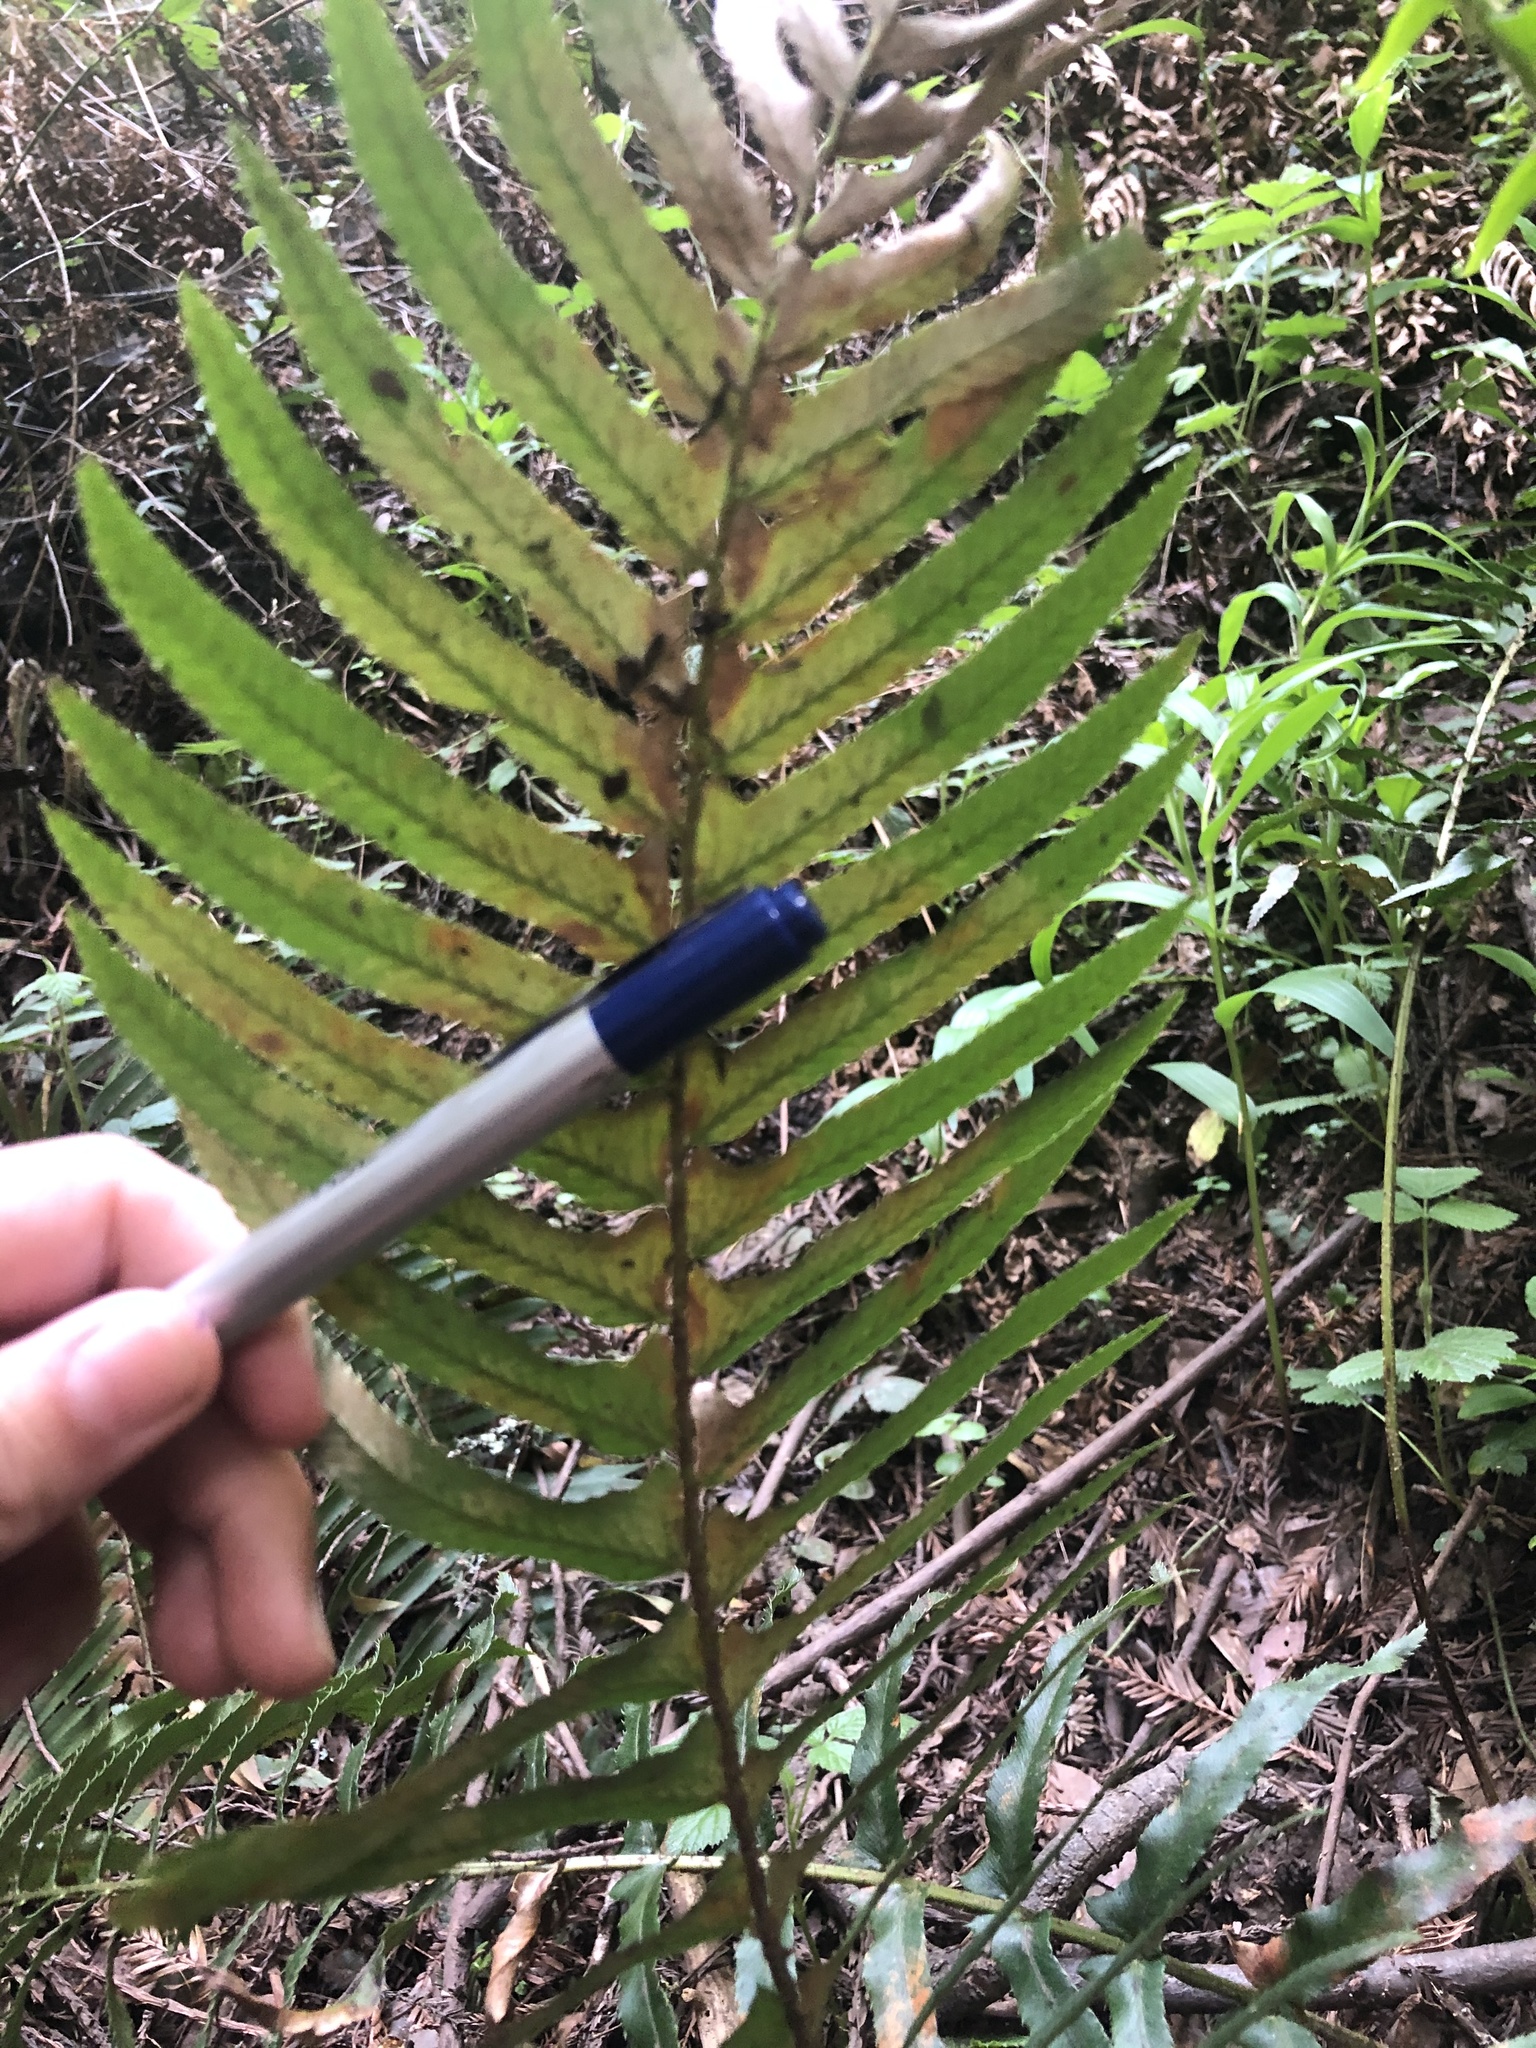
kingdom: Plantae
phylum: Tracheophyta
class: Polypodiopsida
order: Polypodiales
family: Dryopteridaceae
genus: Polystichum
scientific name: Polystichum munitum
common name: Western sword-fern
